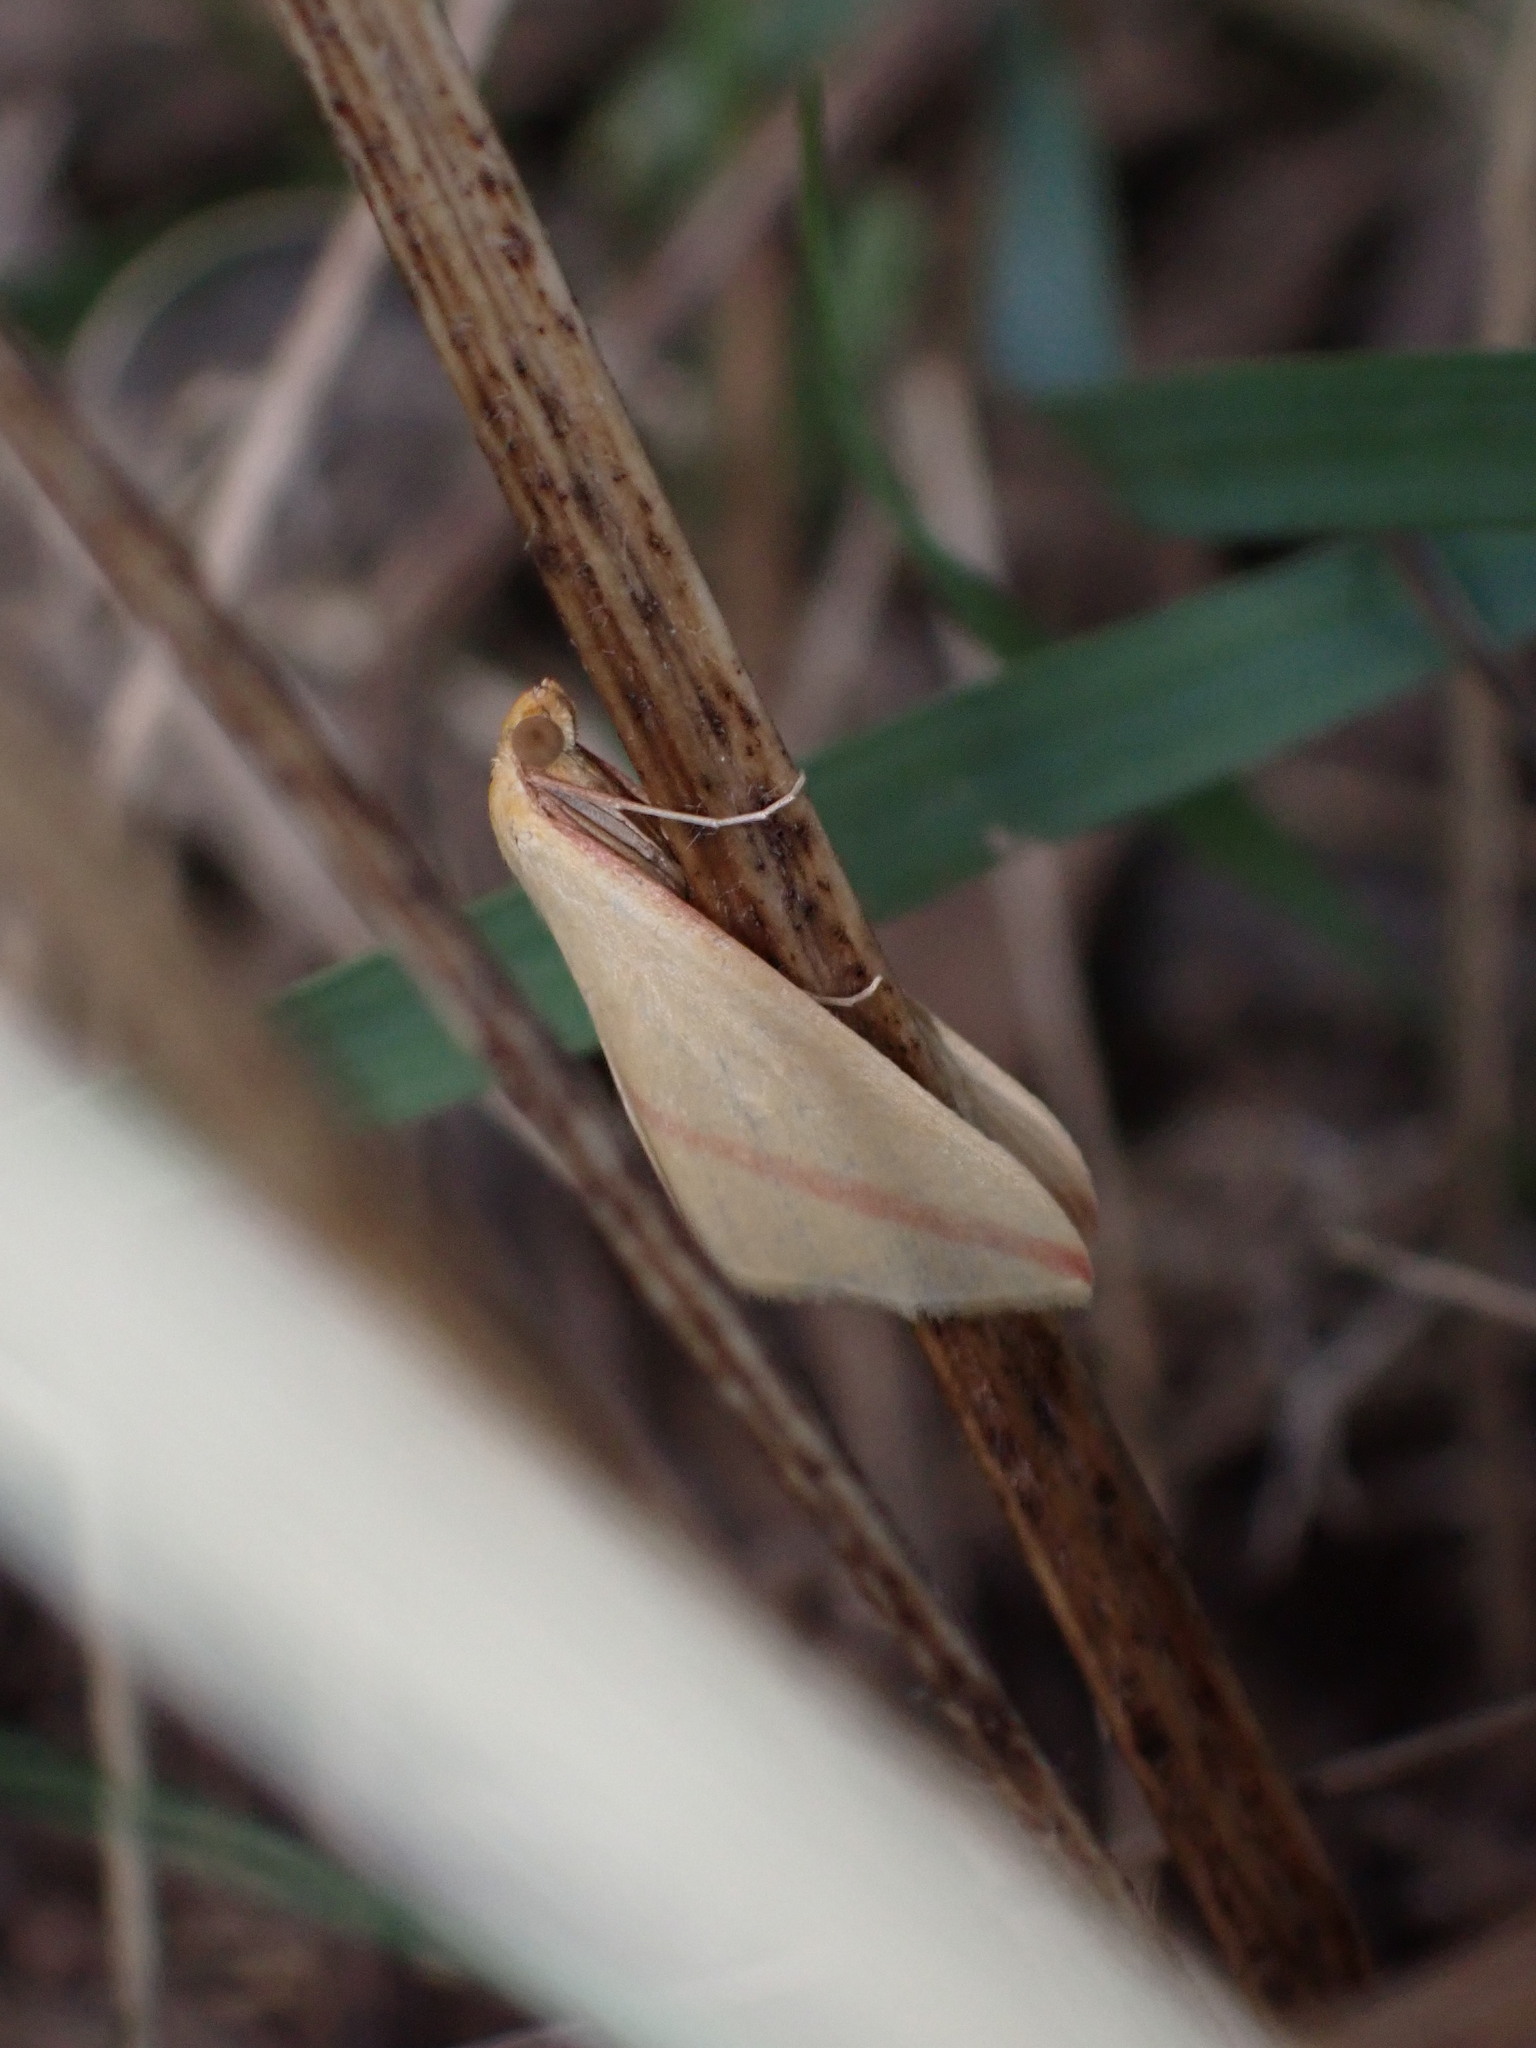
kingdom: Animalia
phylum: Arthropoda
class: Insecta
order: Lepidoptera
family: Geometridae
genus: Rhodometra
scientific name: Rhodometra sacraria
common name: Vestal
